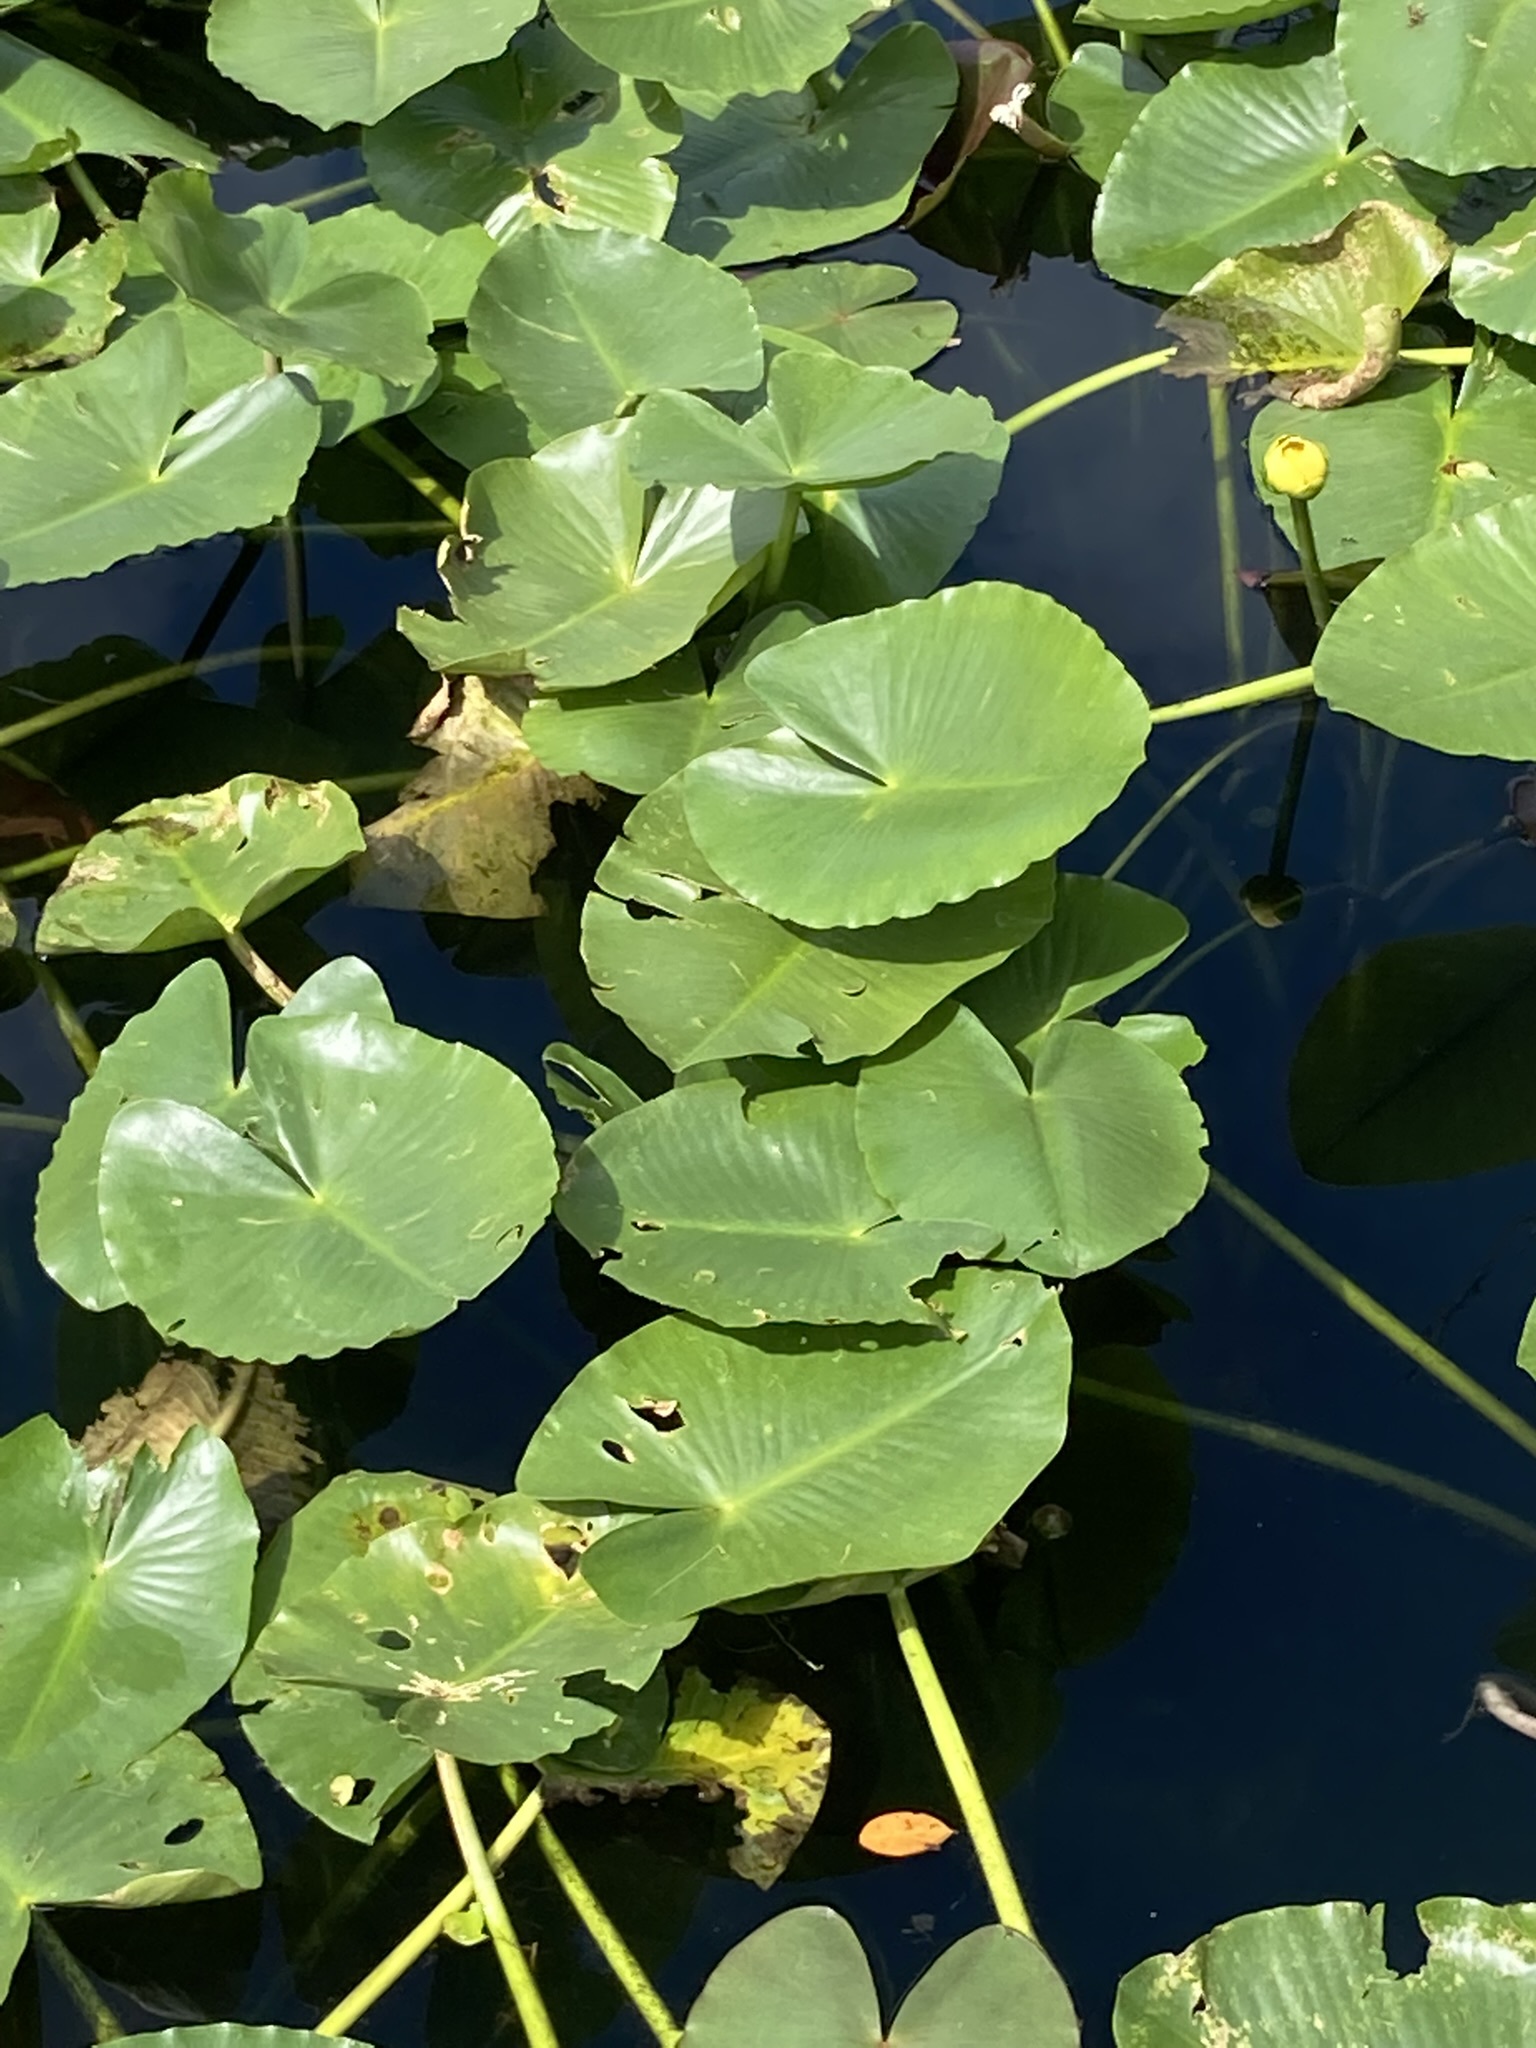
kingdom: Plantae
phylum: Tracheophyta
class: Magnoliopsida
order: Nymphaeales
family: Nymphaeaceae
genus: Nuphar
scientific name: Nuphar advena
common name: Spatter-dock
